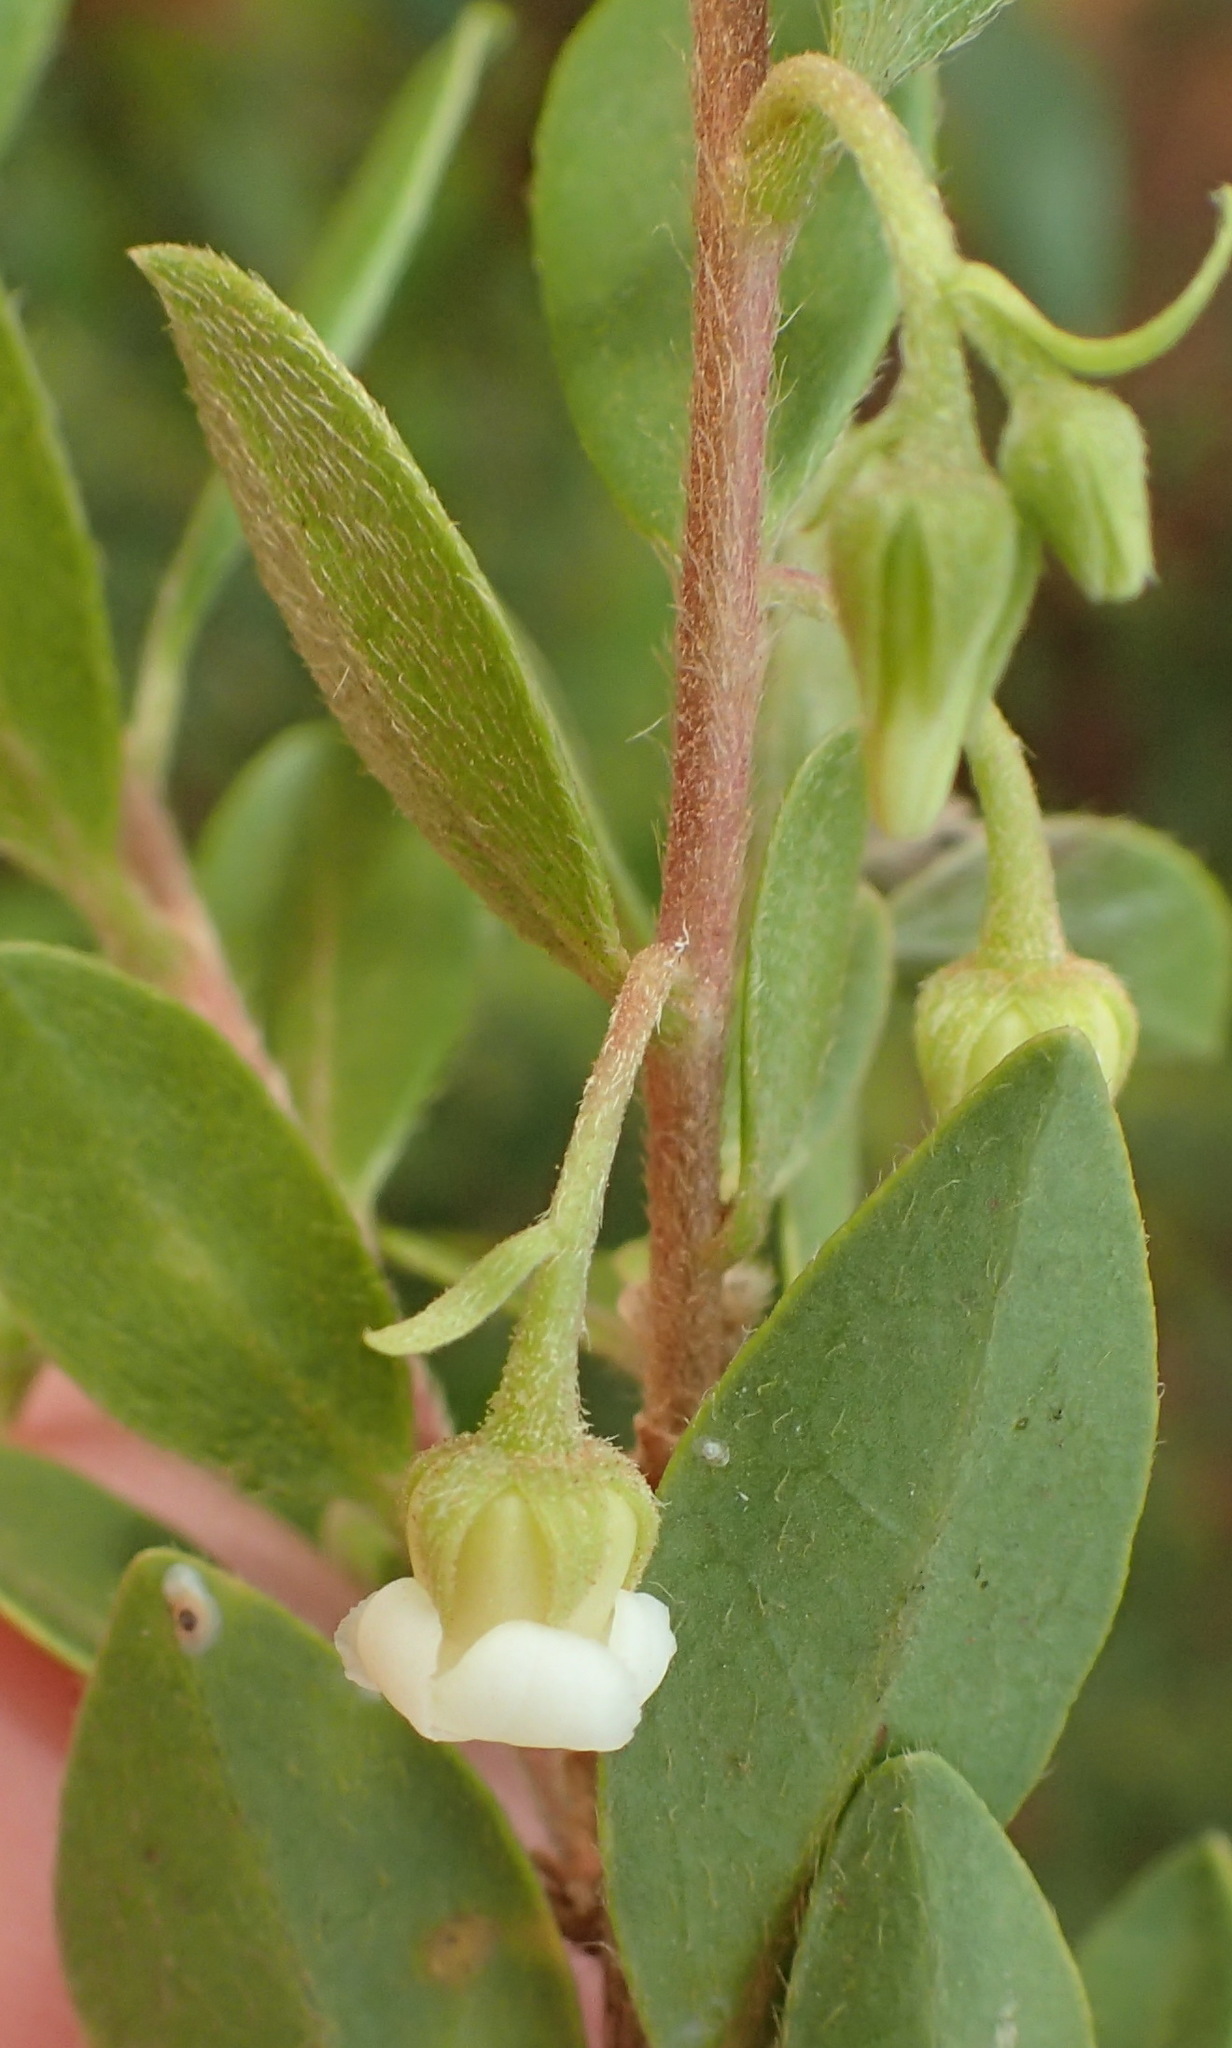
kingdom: Plantae
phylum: Tracheophyta
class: Magnoliopsida
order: Ericales
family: Ebenaceae
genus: Diospyros
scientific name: Diospyros glabra
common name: Fynbos star apple
